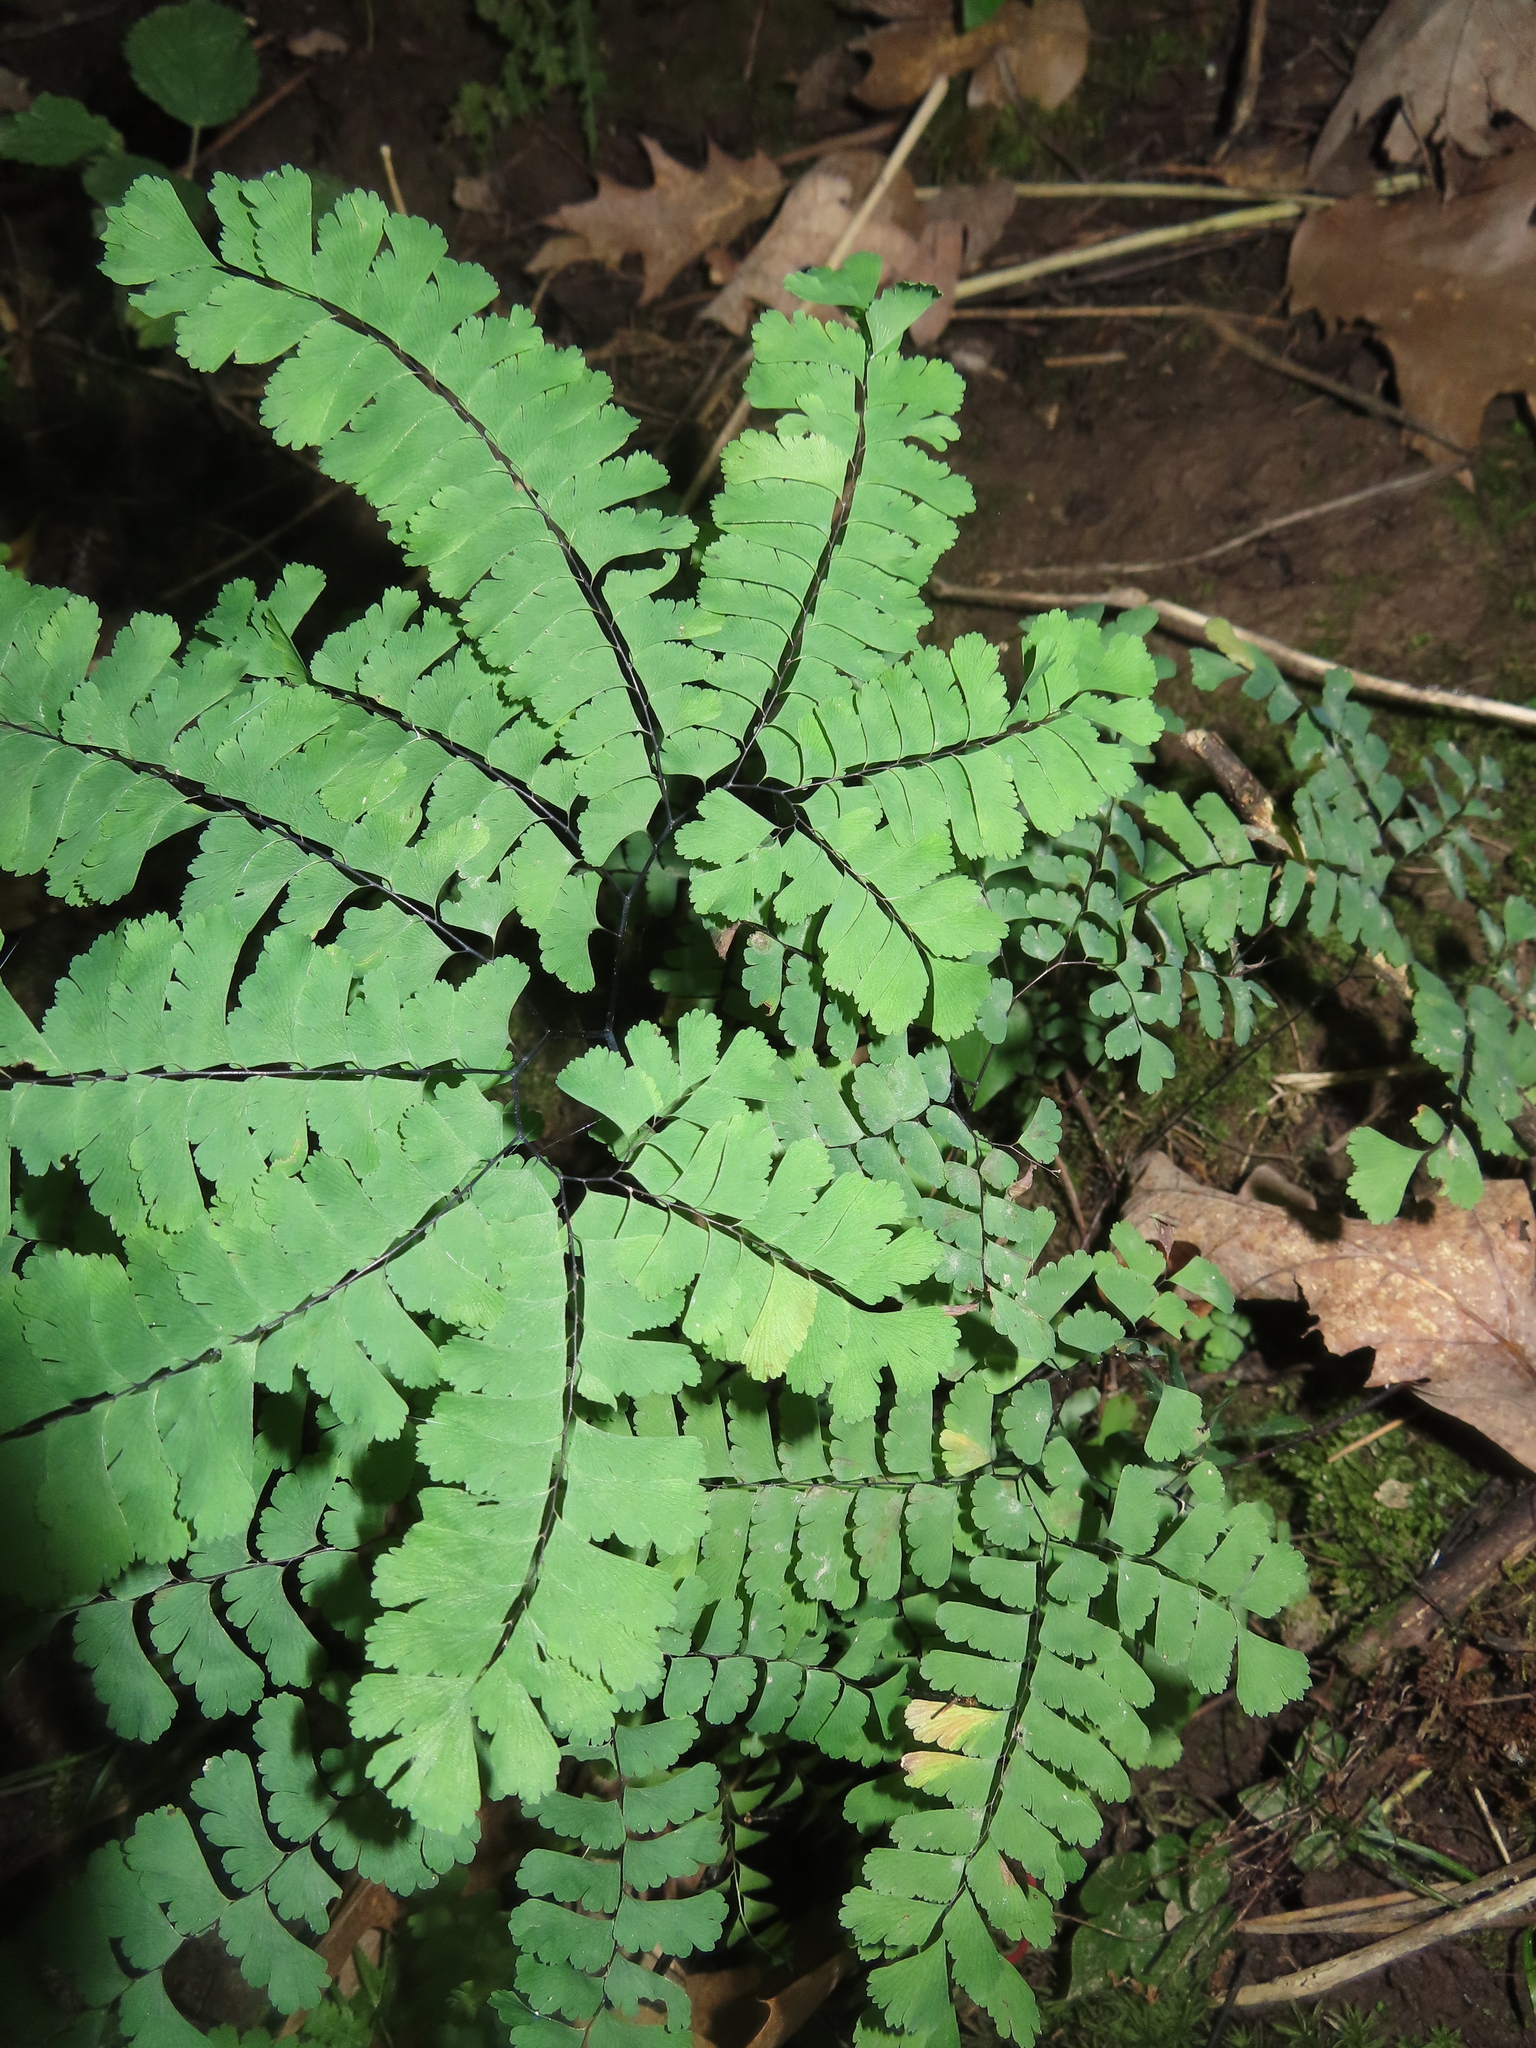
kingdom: Plantae
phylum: Tracheophyta
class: Polypodiopsida
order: Polypodiales
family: Pteridaceae
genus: Adiantum
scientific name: Adiantum pedatum
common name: Five-finger fern
